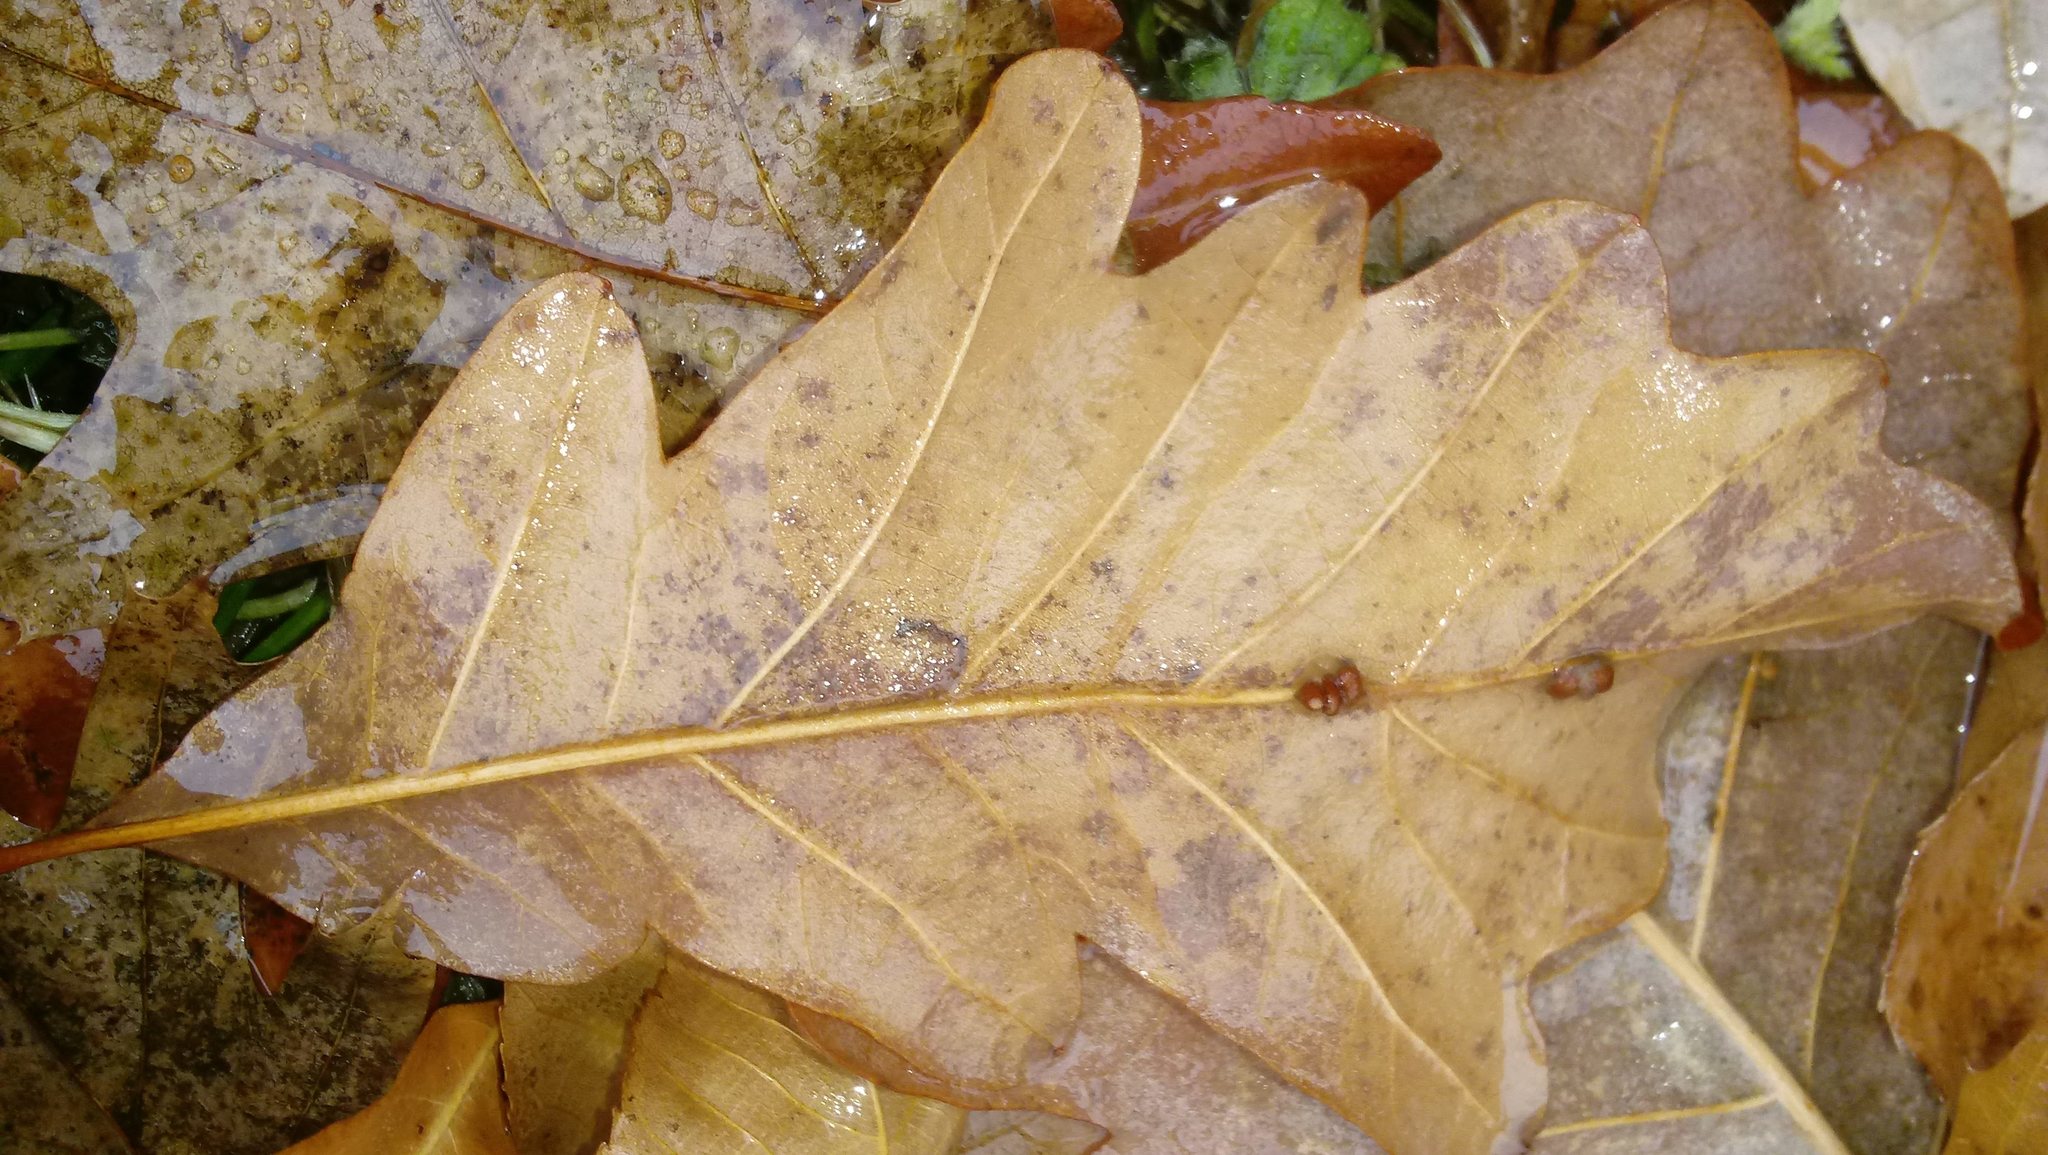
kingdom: Animalia
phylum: Arthropoda
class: Insecta
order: Hymenoptera
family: Cynipidae
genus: Andricus
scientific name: Andricus Druon ignotum
